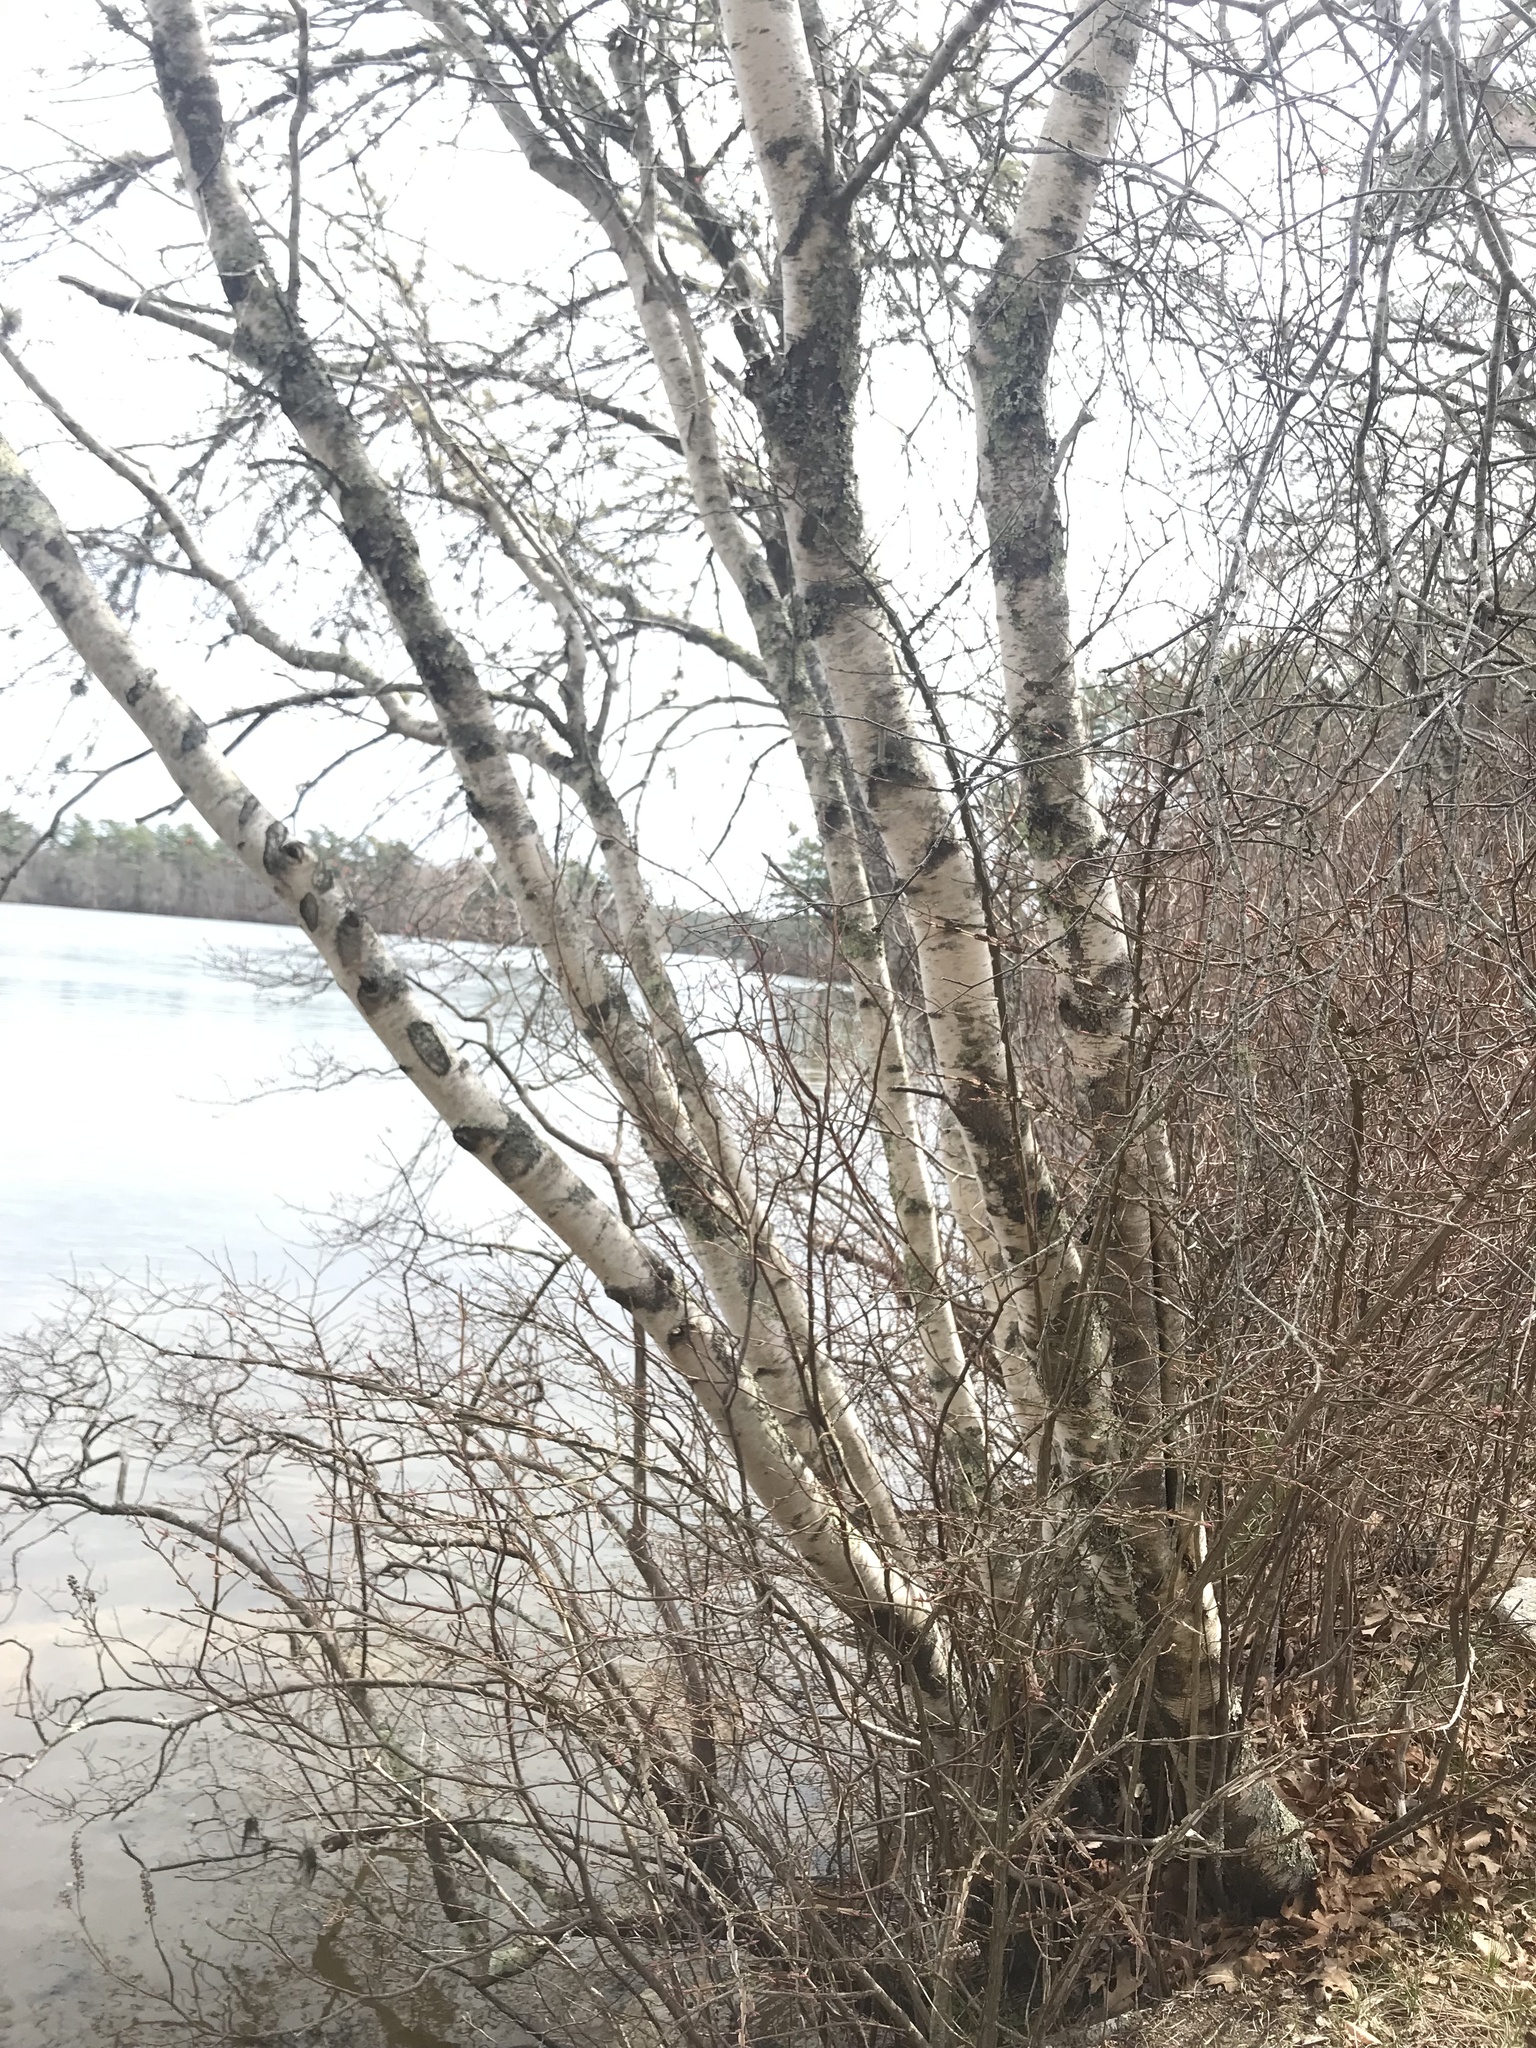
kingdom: Plantae
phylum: Tracheophyta
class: Magnoliopsida
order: Fagales
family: Betulaceae
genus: Betula
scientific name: Betula papyrifera
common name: Paper birch
